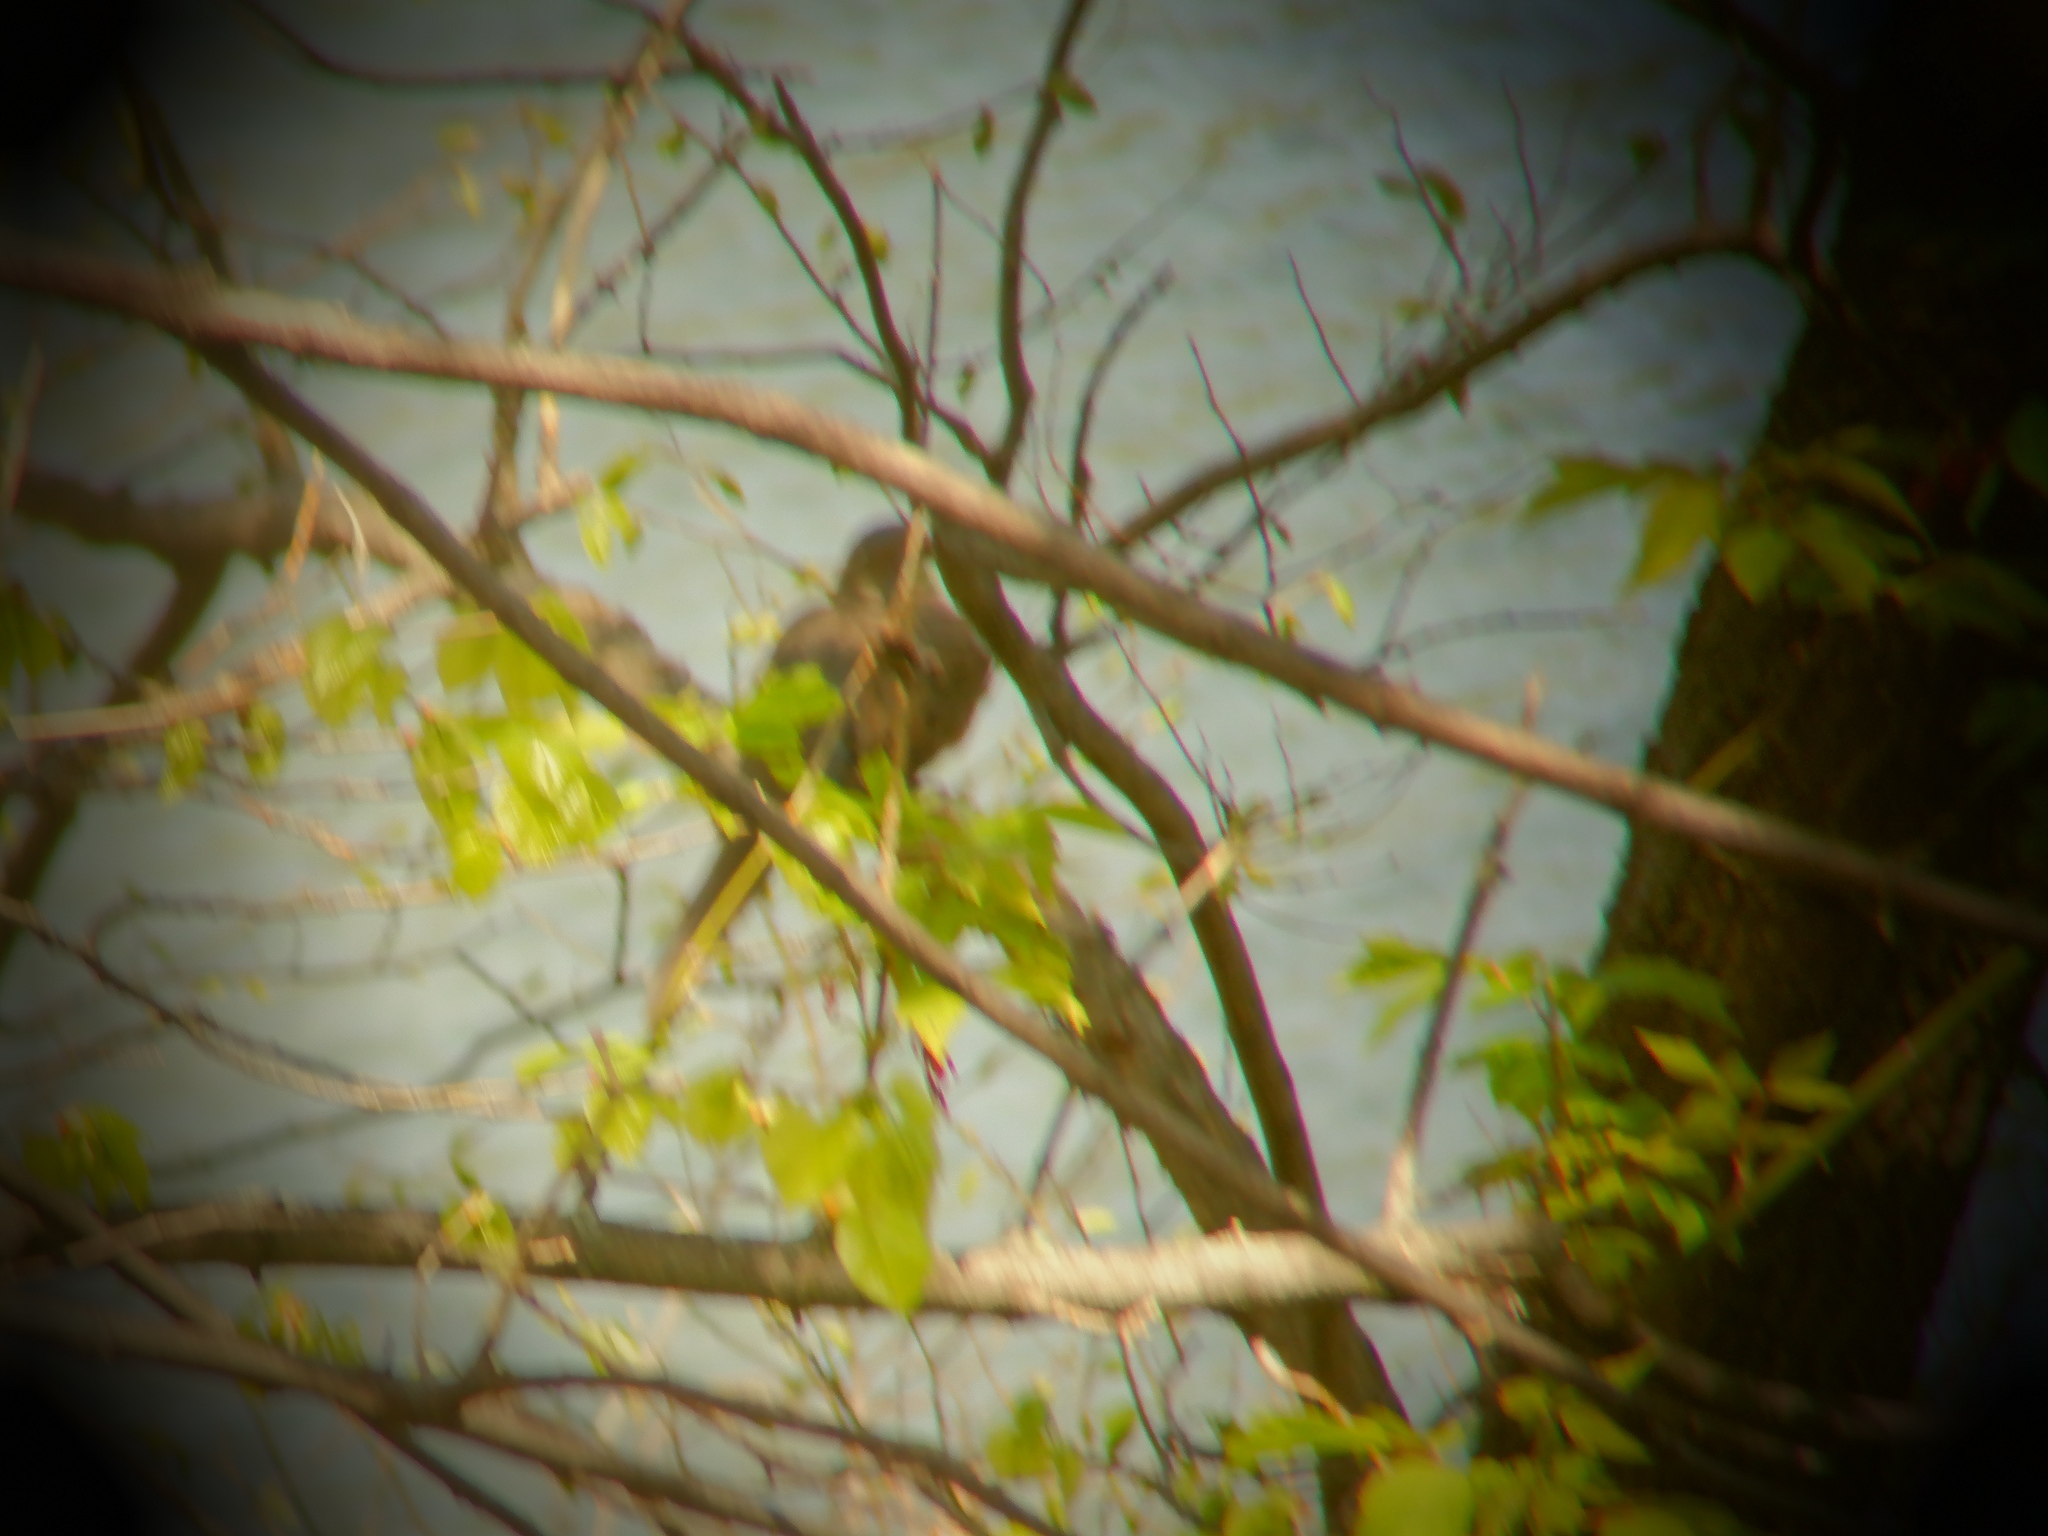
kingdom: Animalia
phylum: Chordata
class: Aves
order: Columbiformes
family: Columbidae
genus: Zenaida
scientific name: Zenaida macroura
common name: Mourning dove
